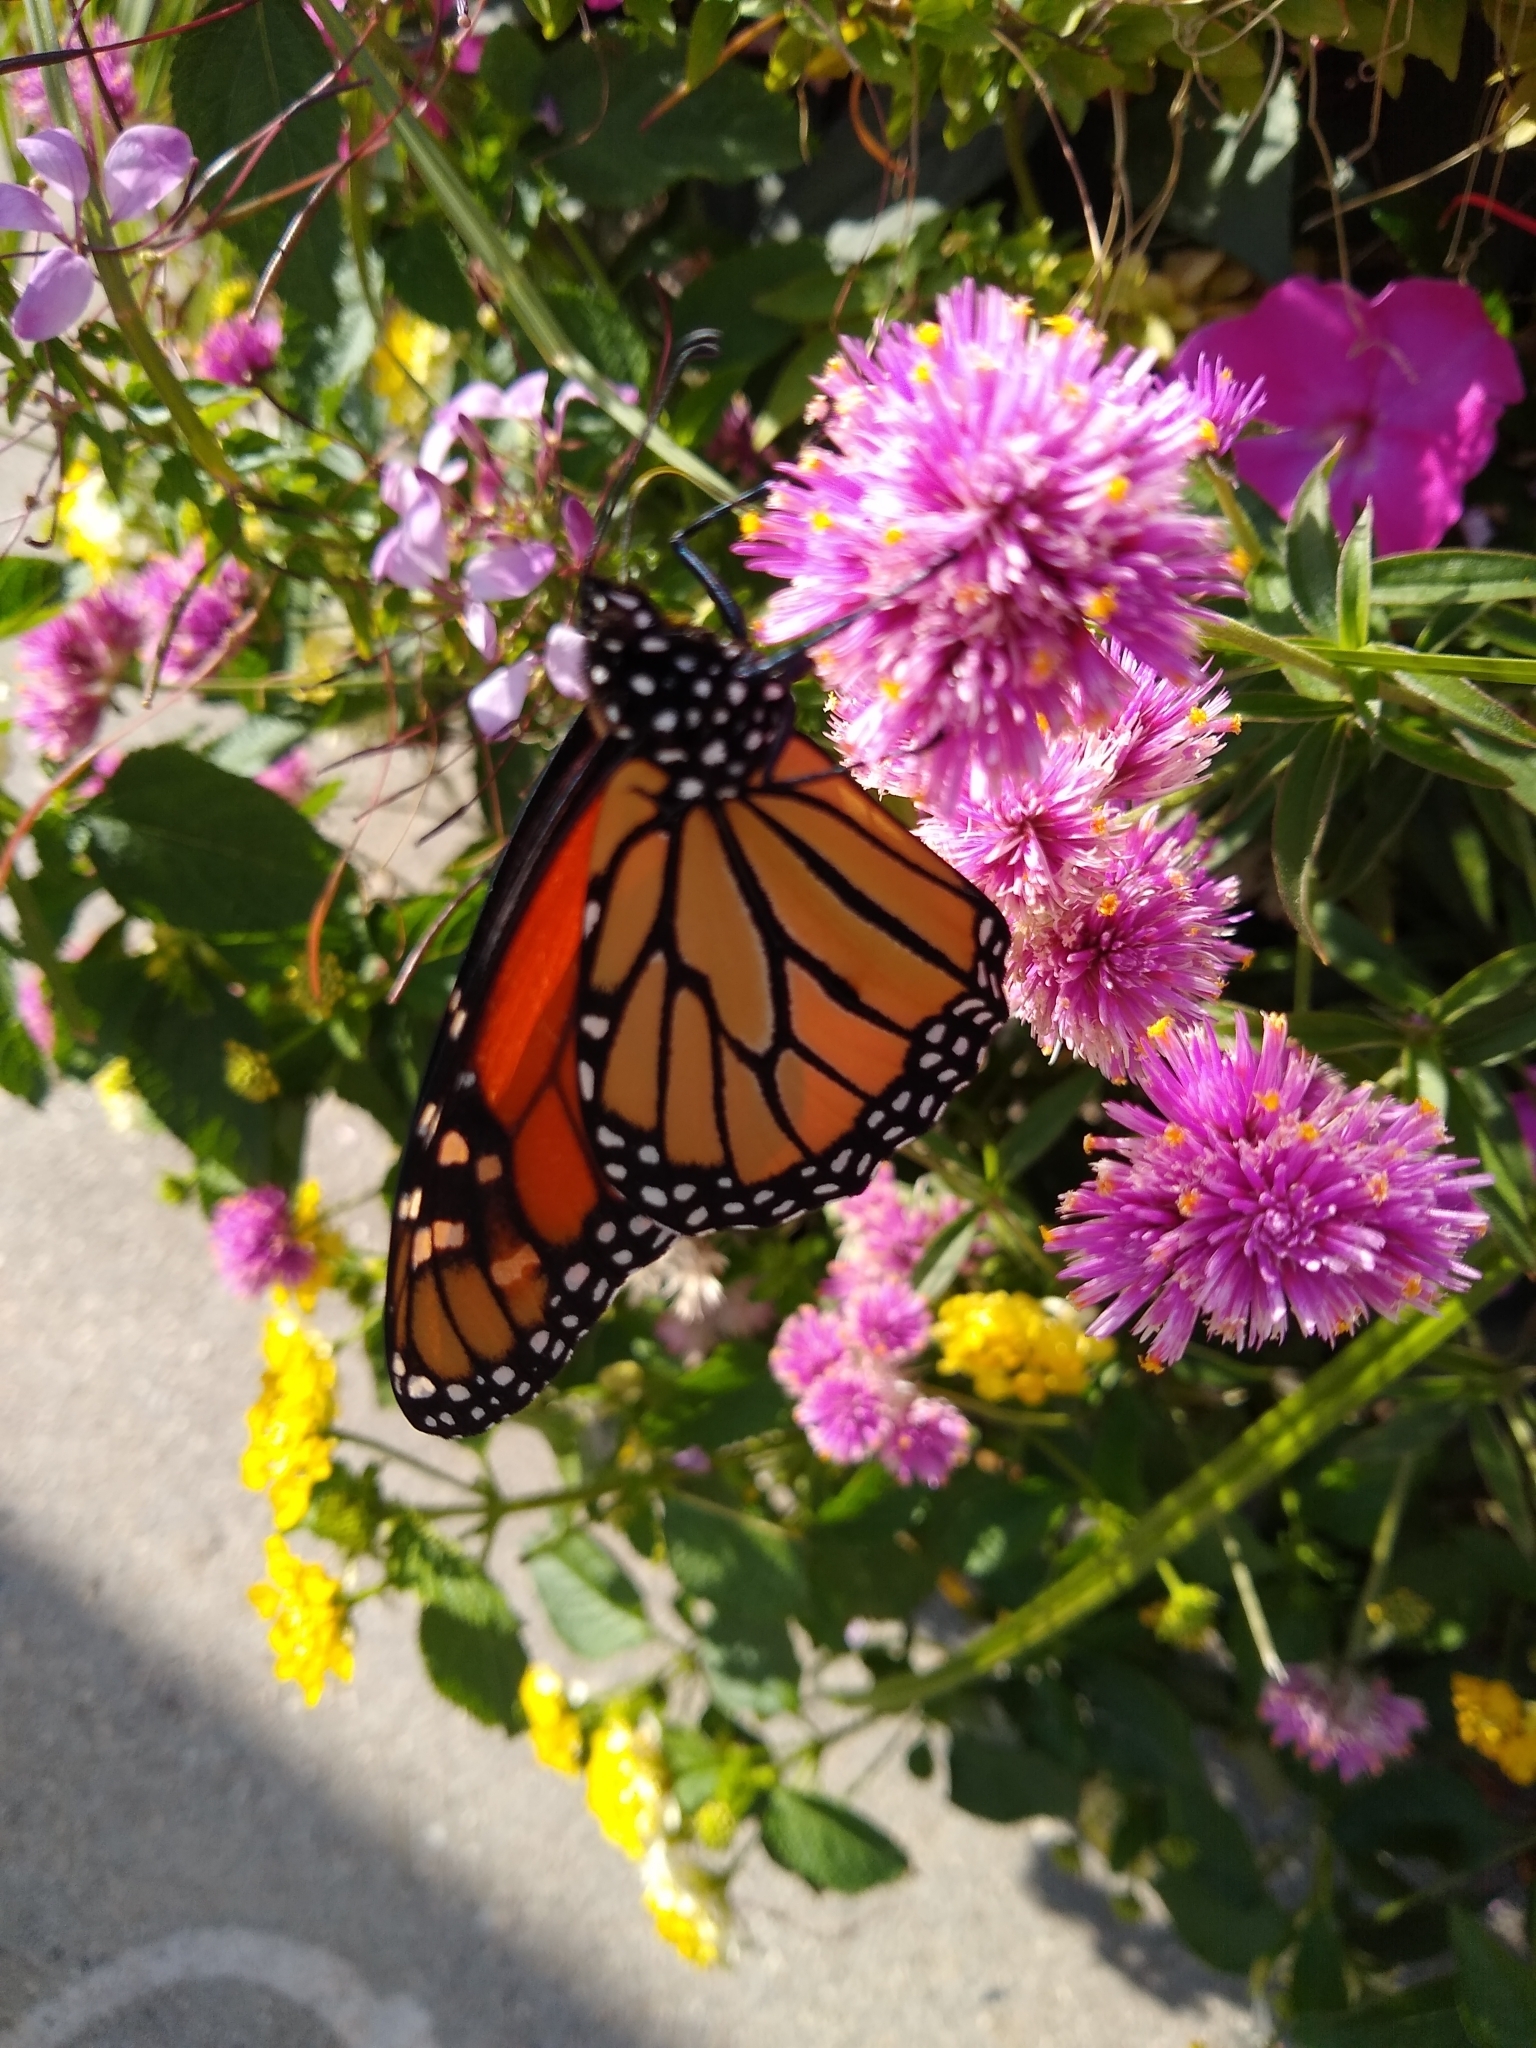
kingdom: Animalia
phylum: Arthropoda
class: Insecta
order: Lepidoptera
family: Nymphalidae
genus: Danaus
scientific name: Danaus plexippus
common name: Monarch
